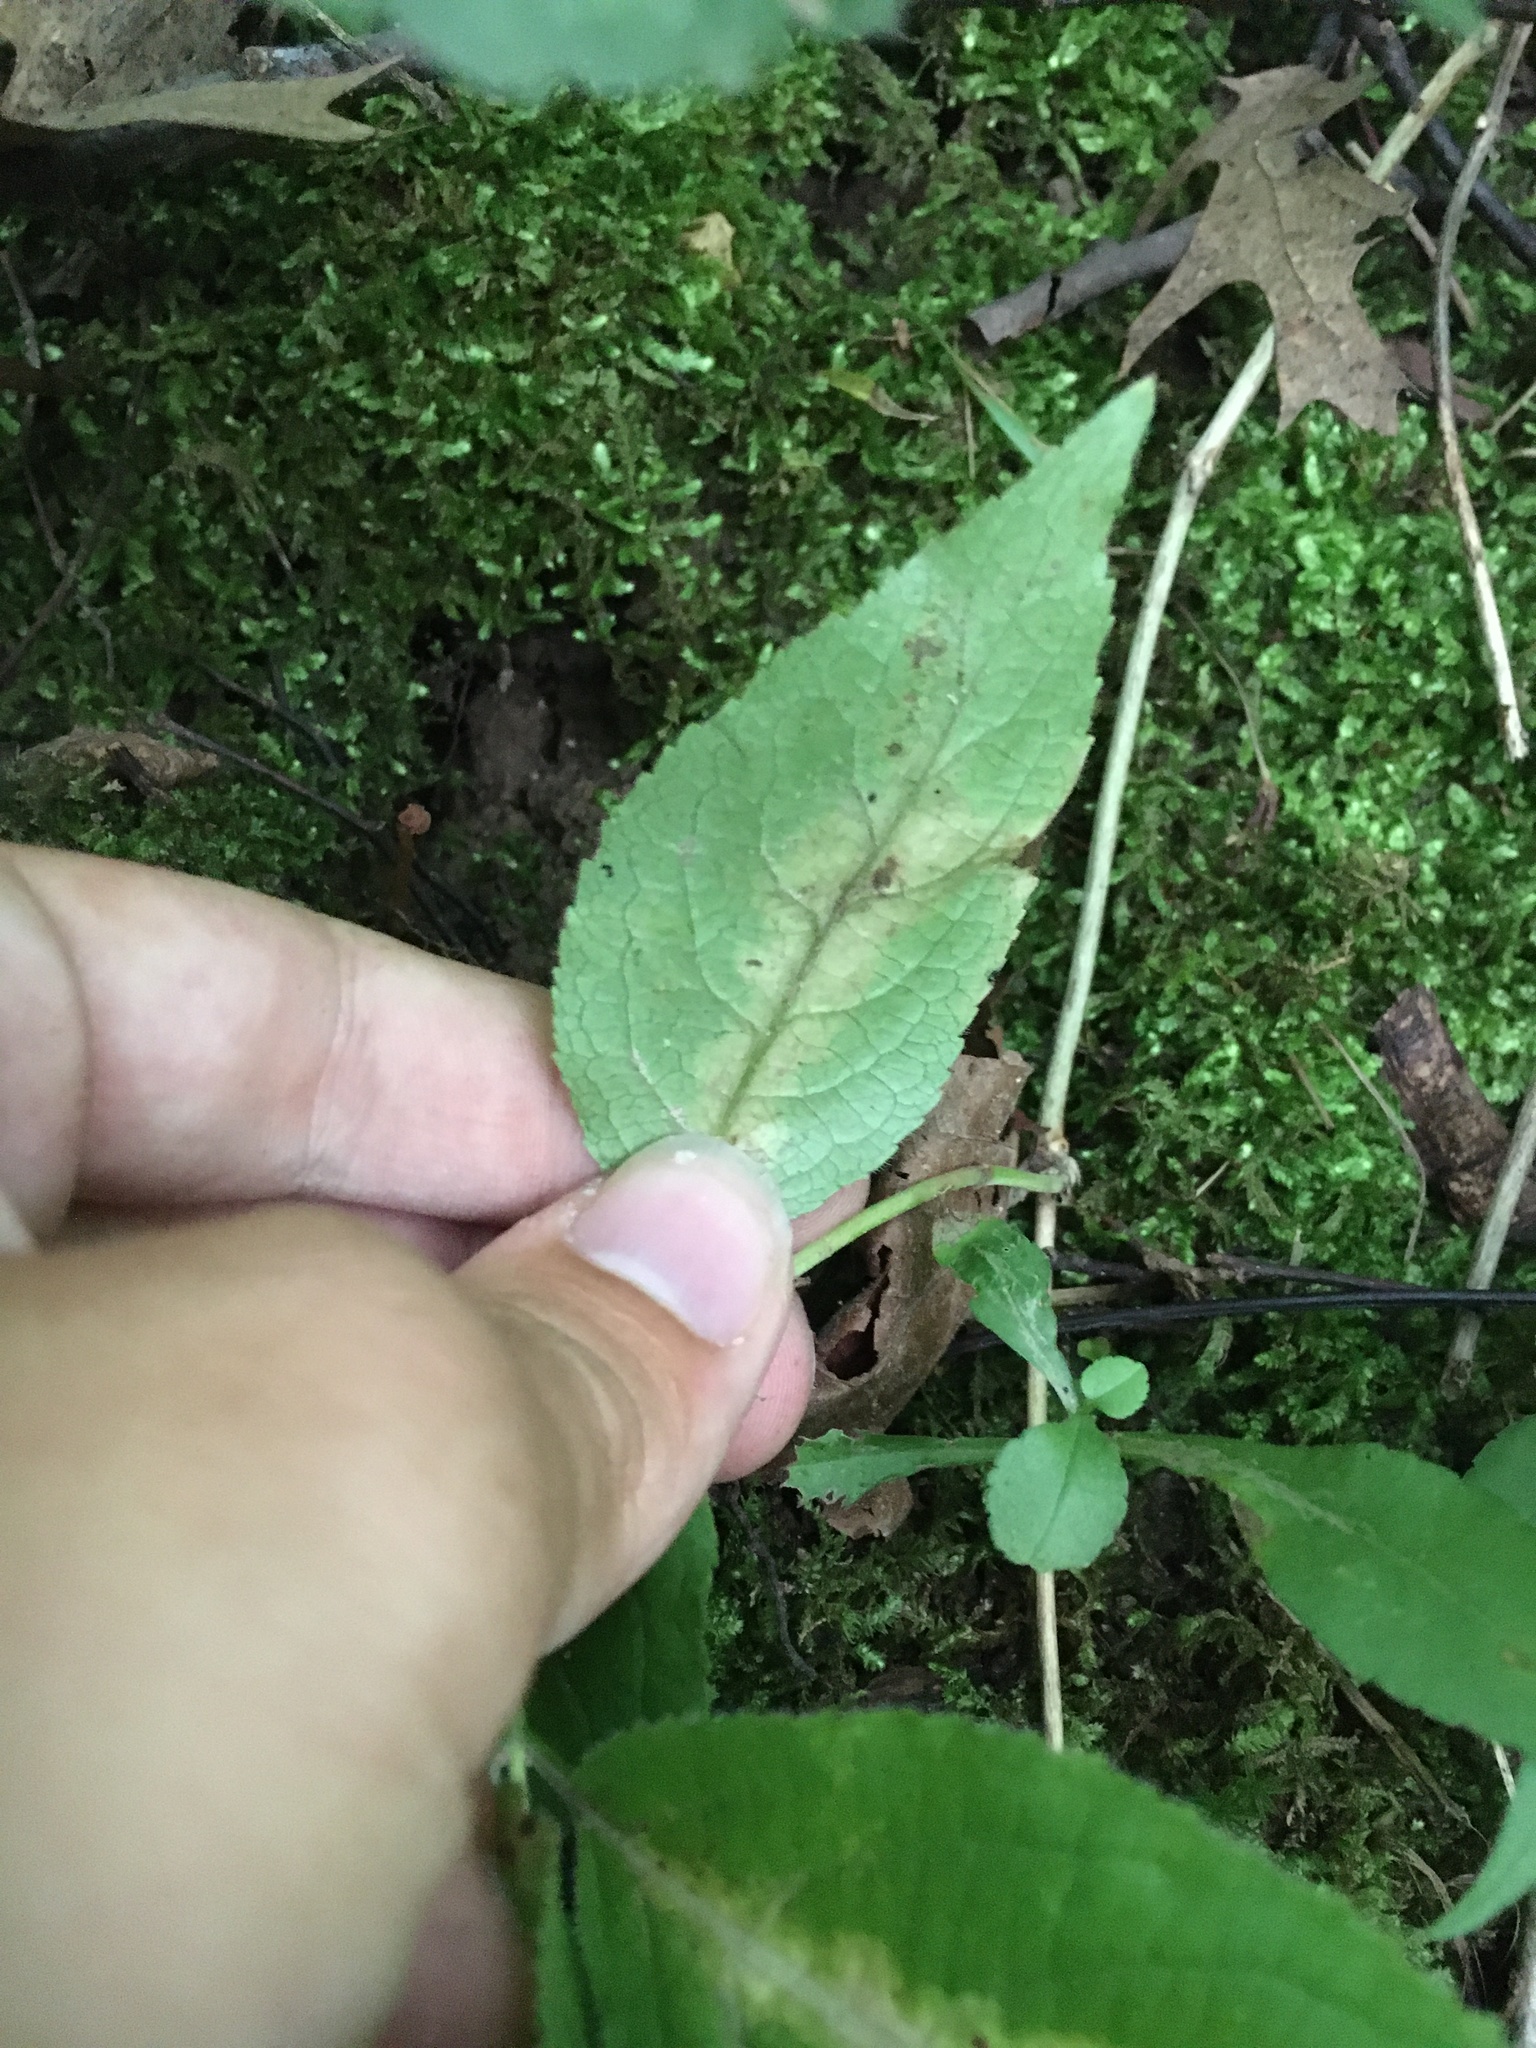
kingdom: Animalia
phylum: Arthropoda
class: Insecta
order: Diptera
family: Agromyzidae
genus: Aulagromyza
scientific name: Aulagromyza orbitalis
